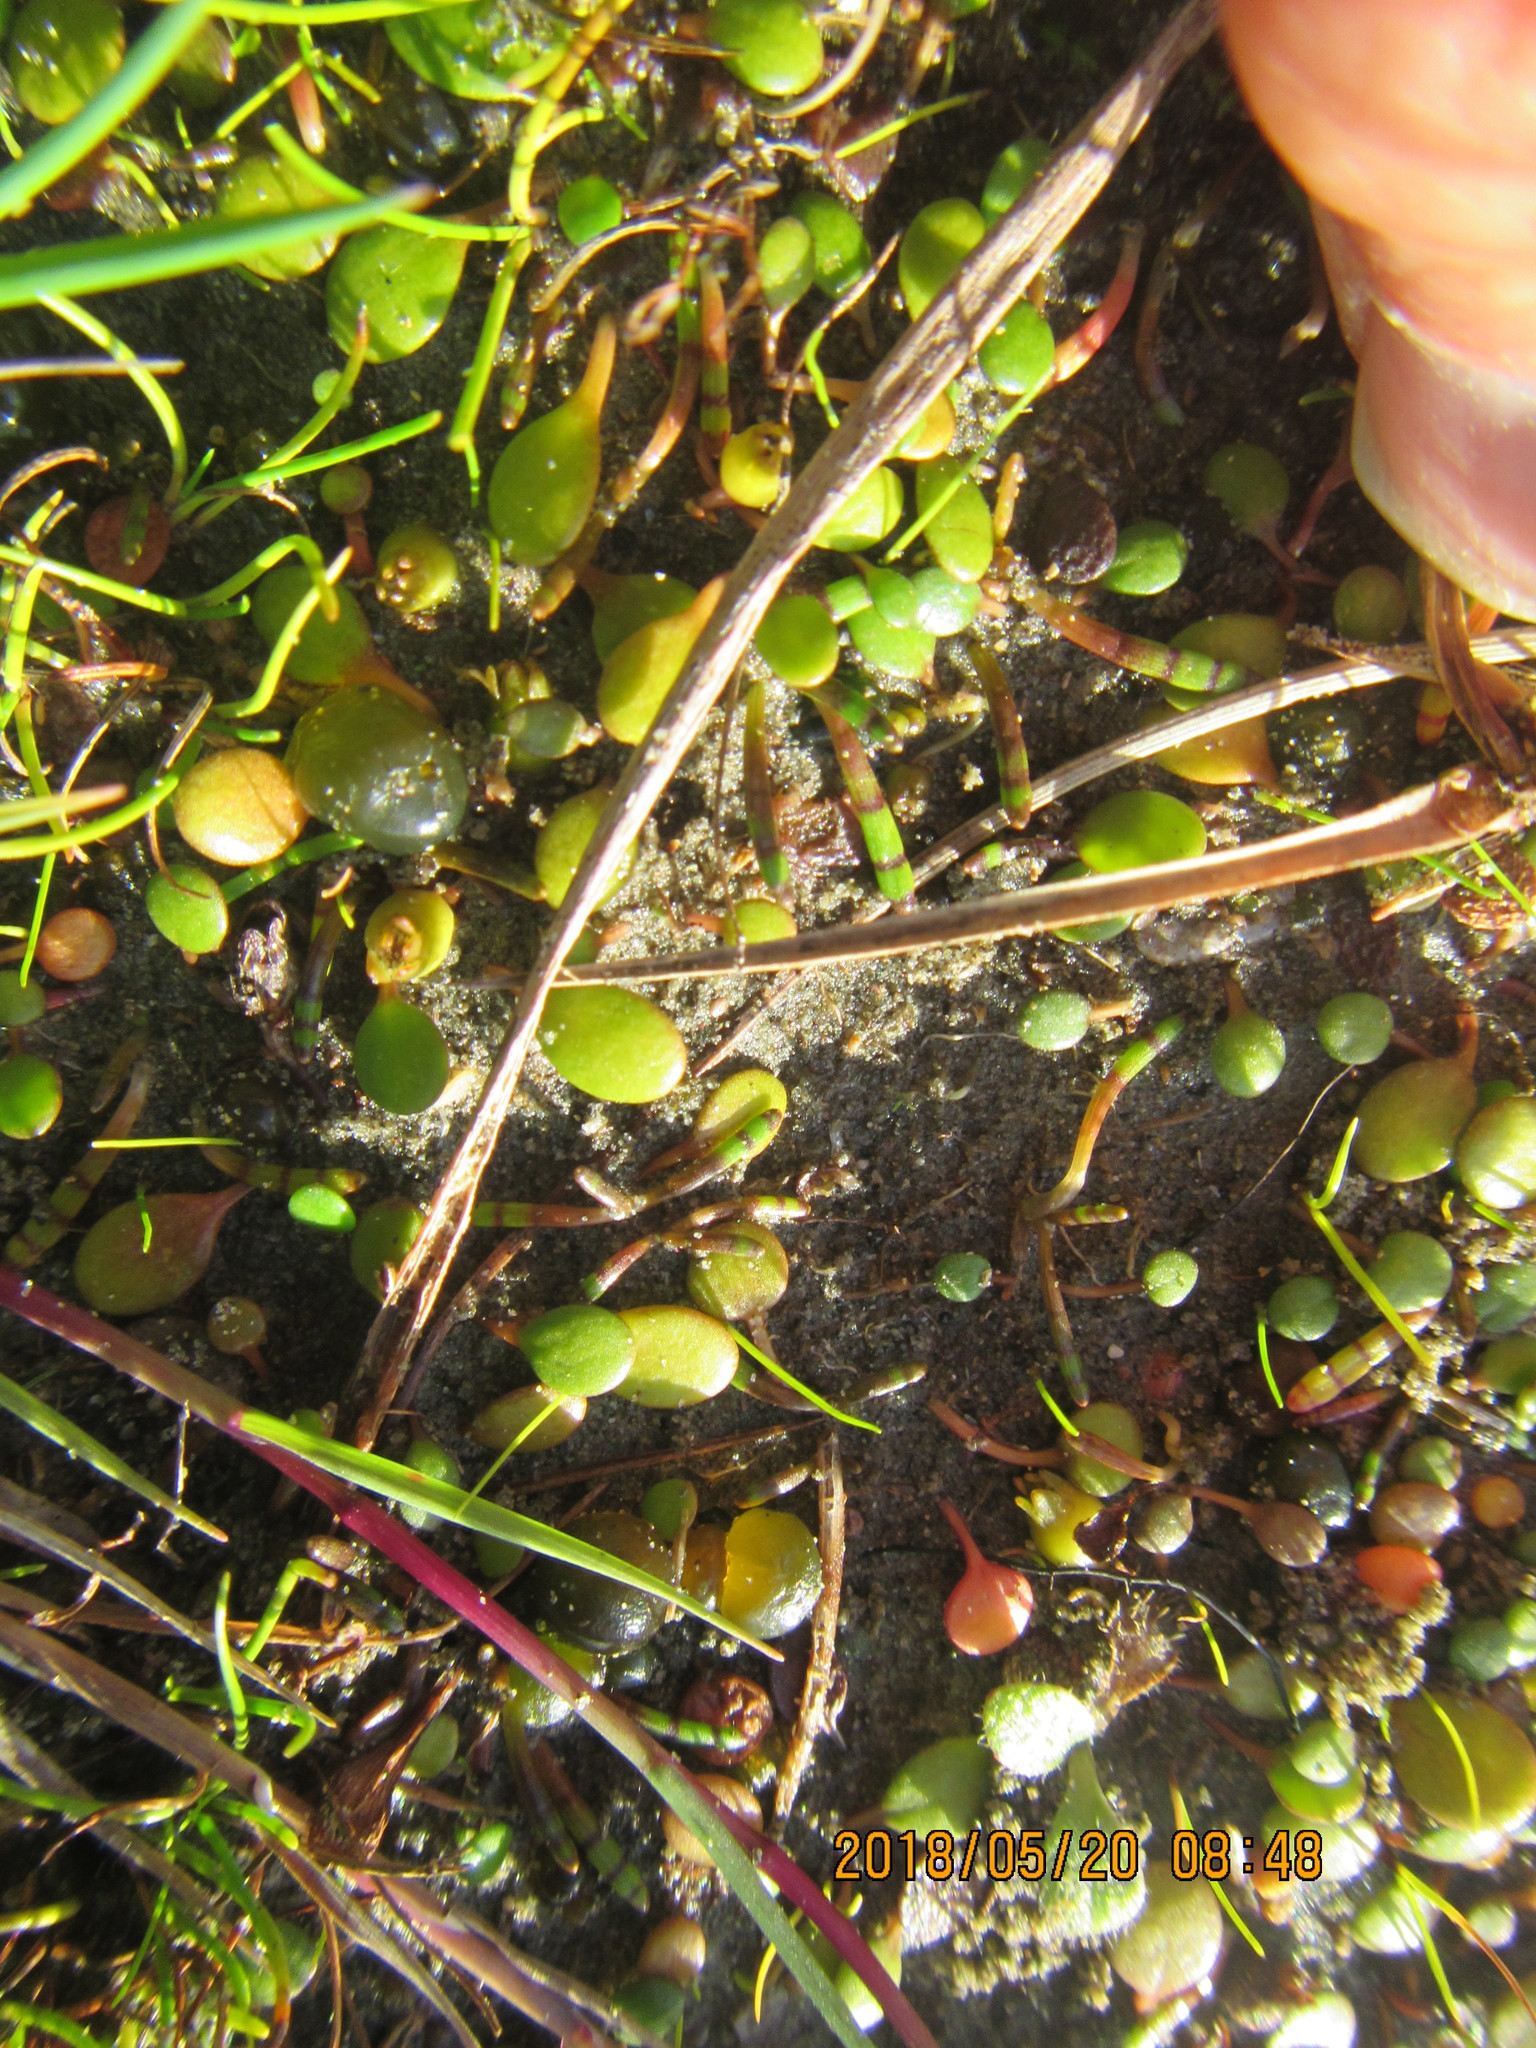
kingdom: Plantae
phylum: Tracheophyta
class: Magnoliopsida
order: Asterales
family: Goodeniaceae
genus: Goodenia
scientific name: Goodenia heenanii
